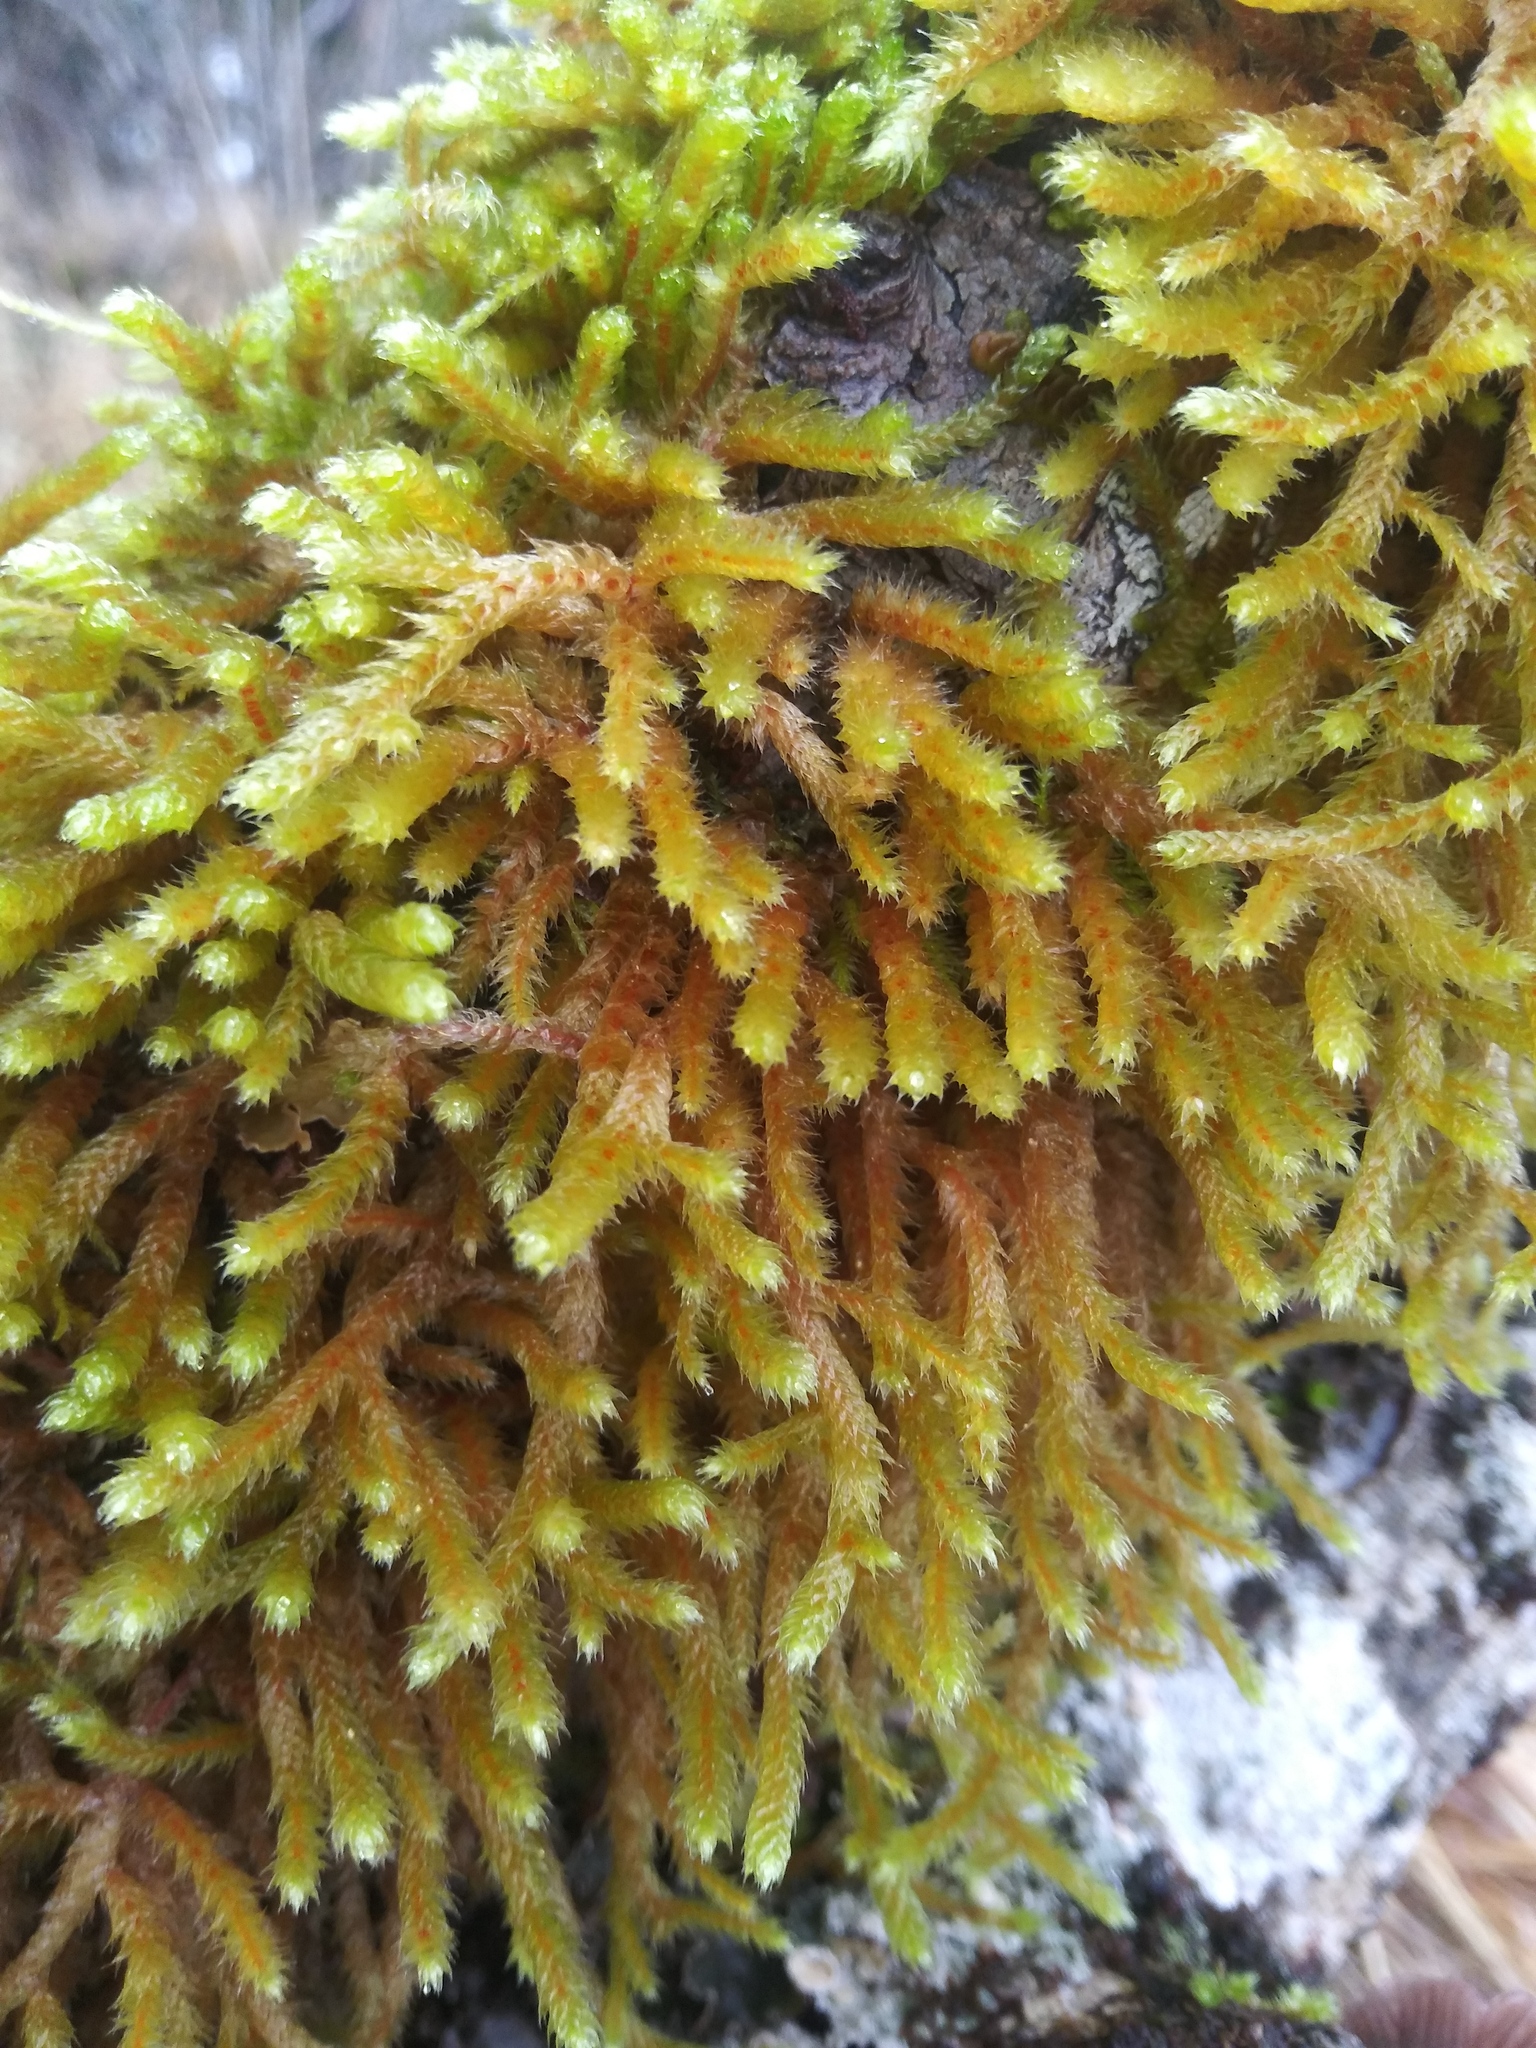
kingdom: Plantae
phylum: Bryophyta
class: Bryopsida
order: Hypnales
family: Antitrichiaceae
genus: Antitrichia
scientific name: Antitrichia curtipendula
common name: Pendulous wing-moss
